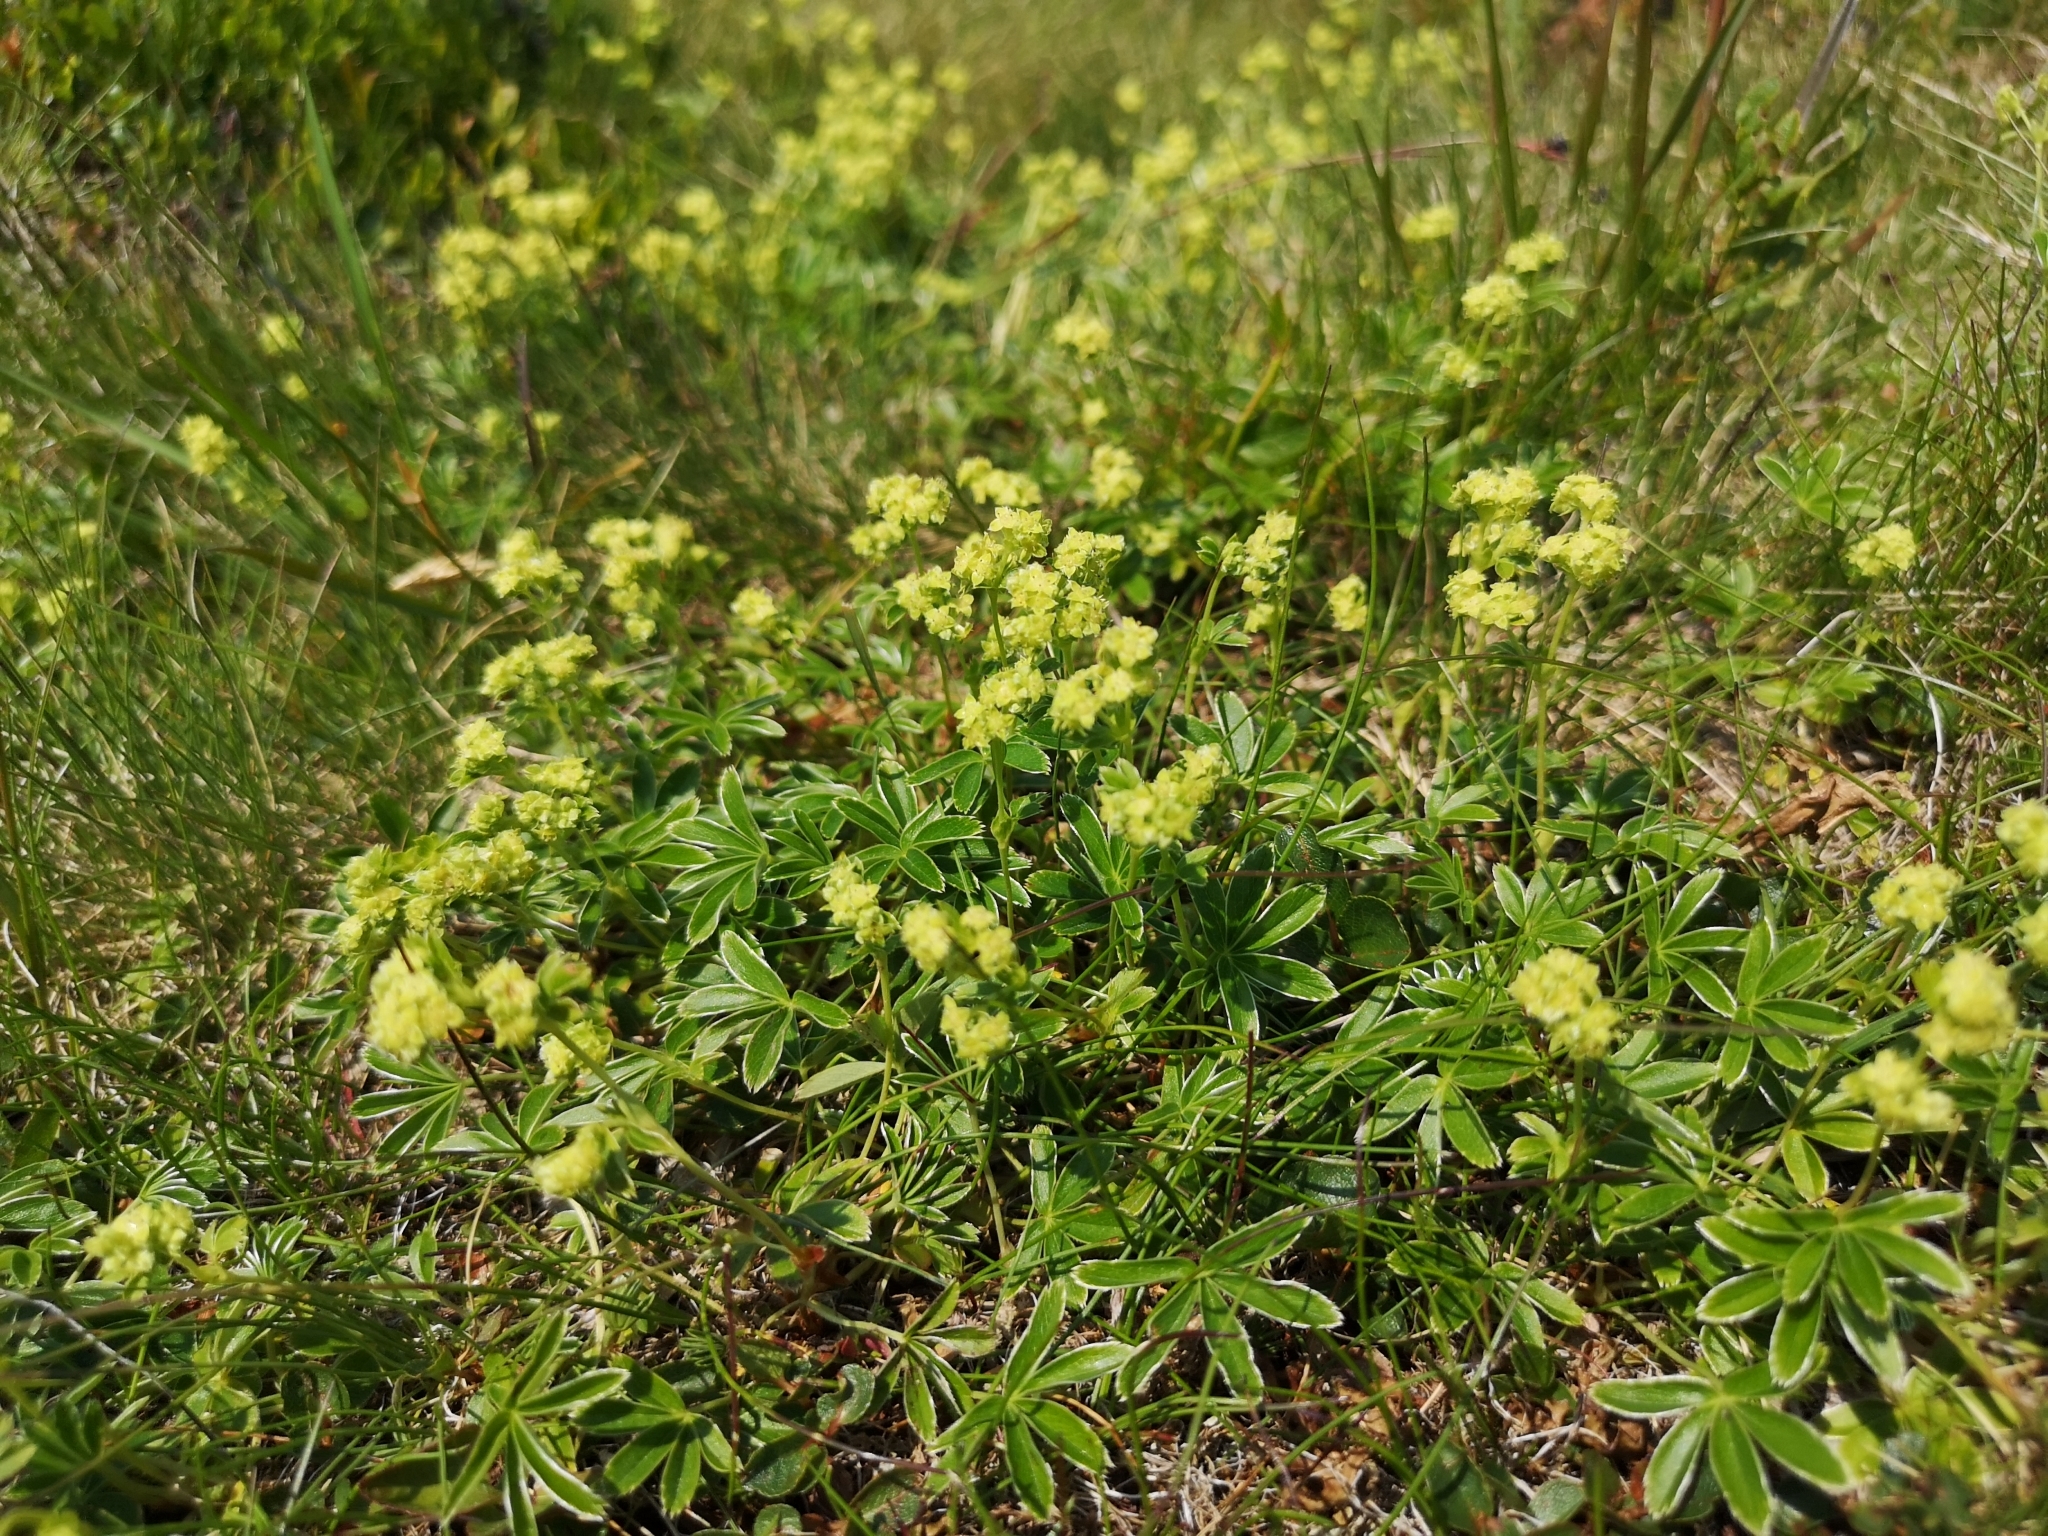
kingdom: Plantae
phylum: Tracheophyta
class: Magnoliopsida
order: Rosales
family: Rosaceae
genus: Alchemilla
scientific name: Alchemilla alpina
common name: Alpine lady's-mantle
